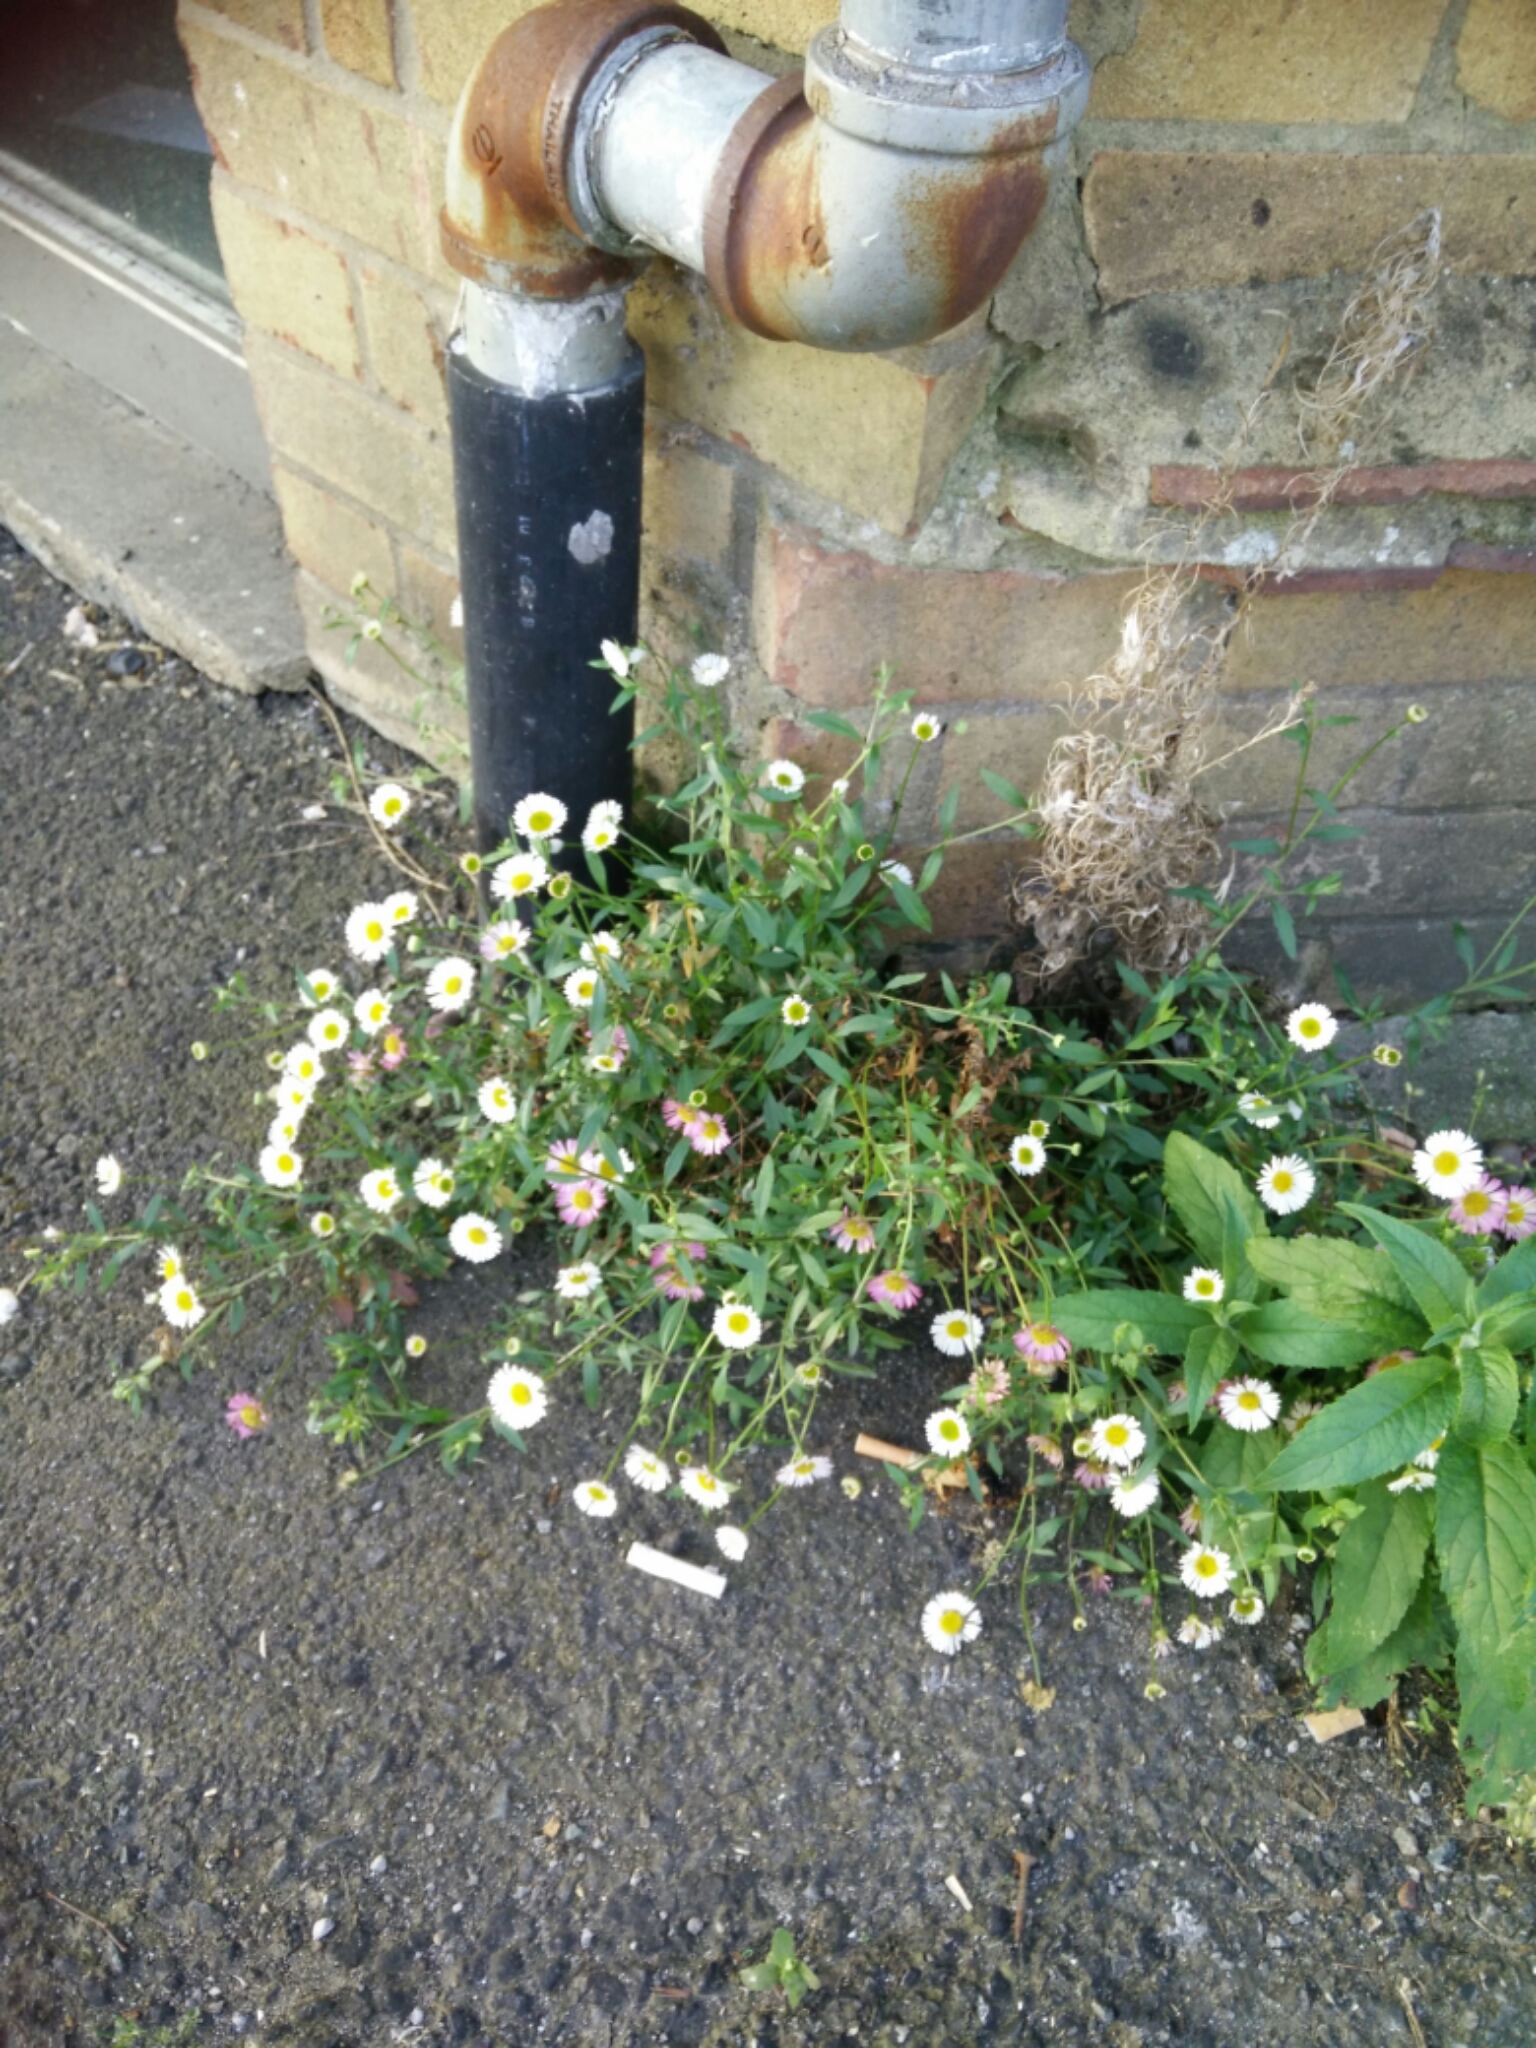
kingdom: Plantae
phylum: Tracheophyta
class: Magnoliopsida
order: Asterales
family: Asteraceae
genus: Erigeron
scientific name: Erigeron karvinskianus
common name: Mexican fleabane
